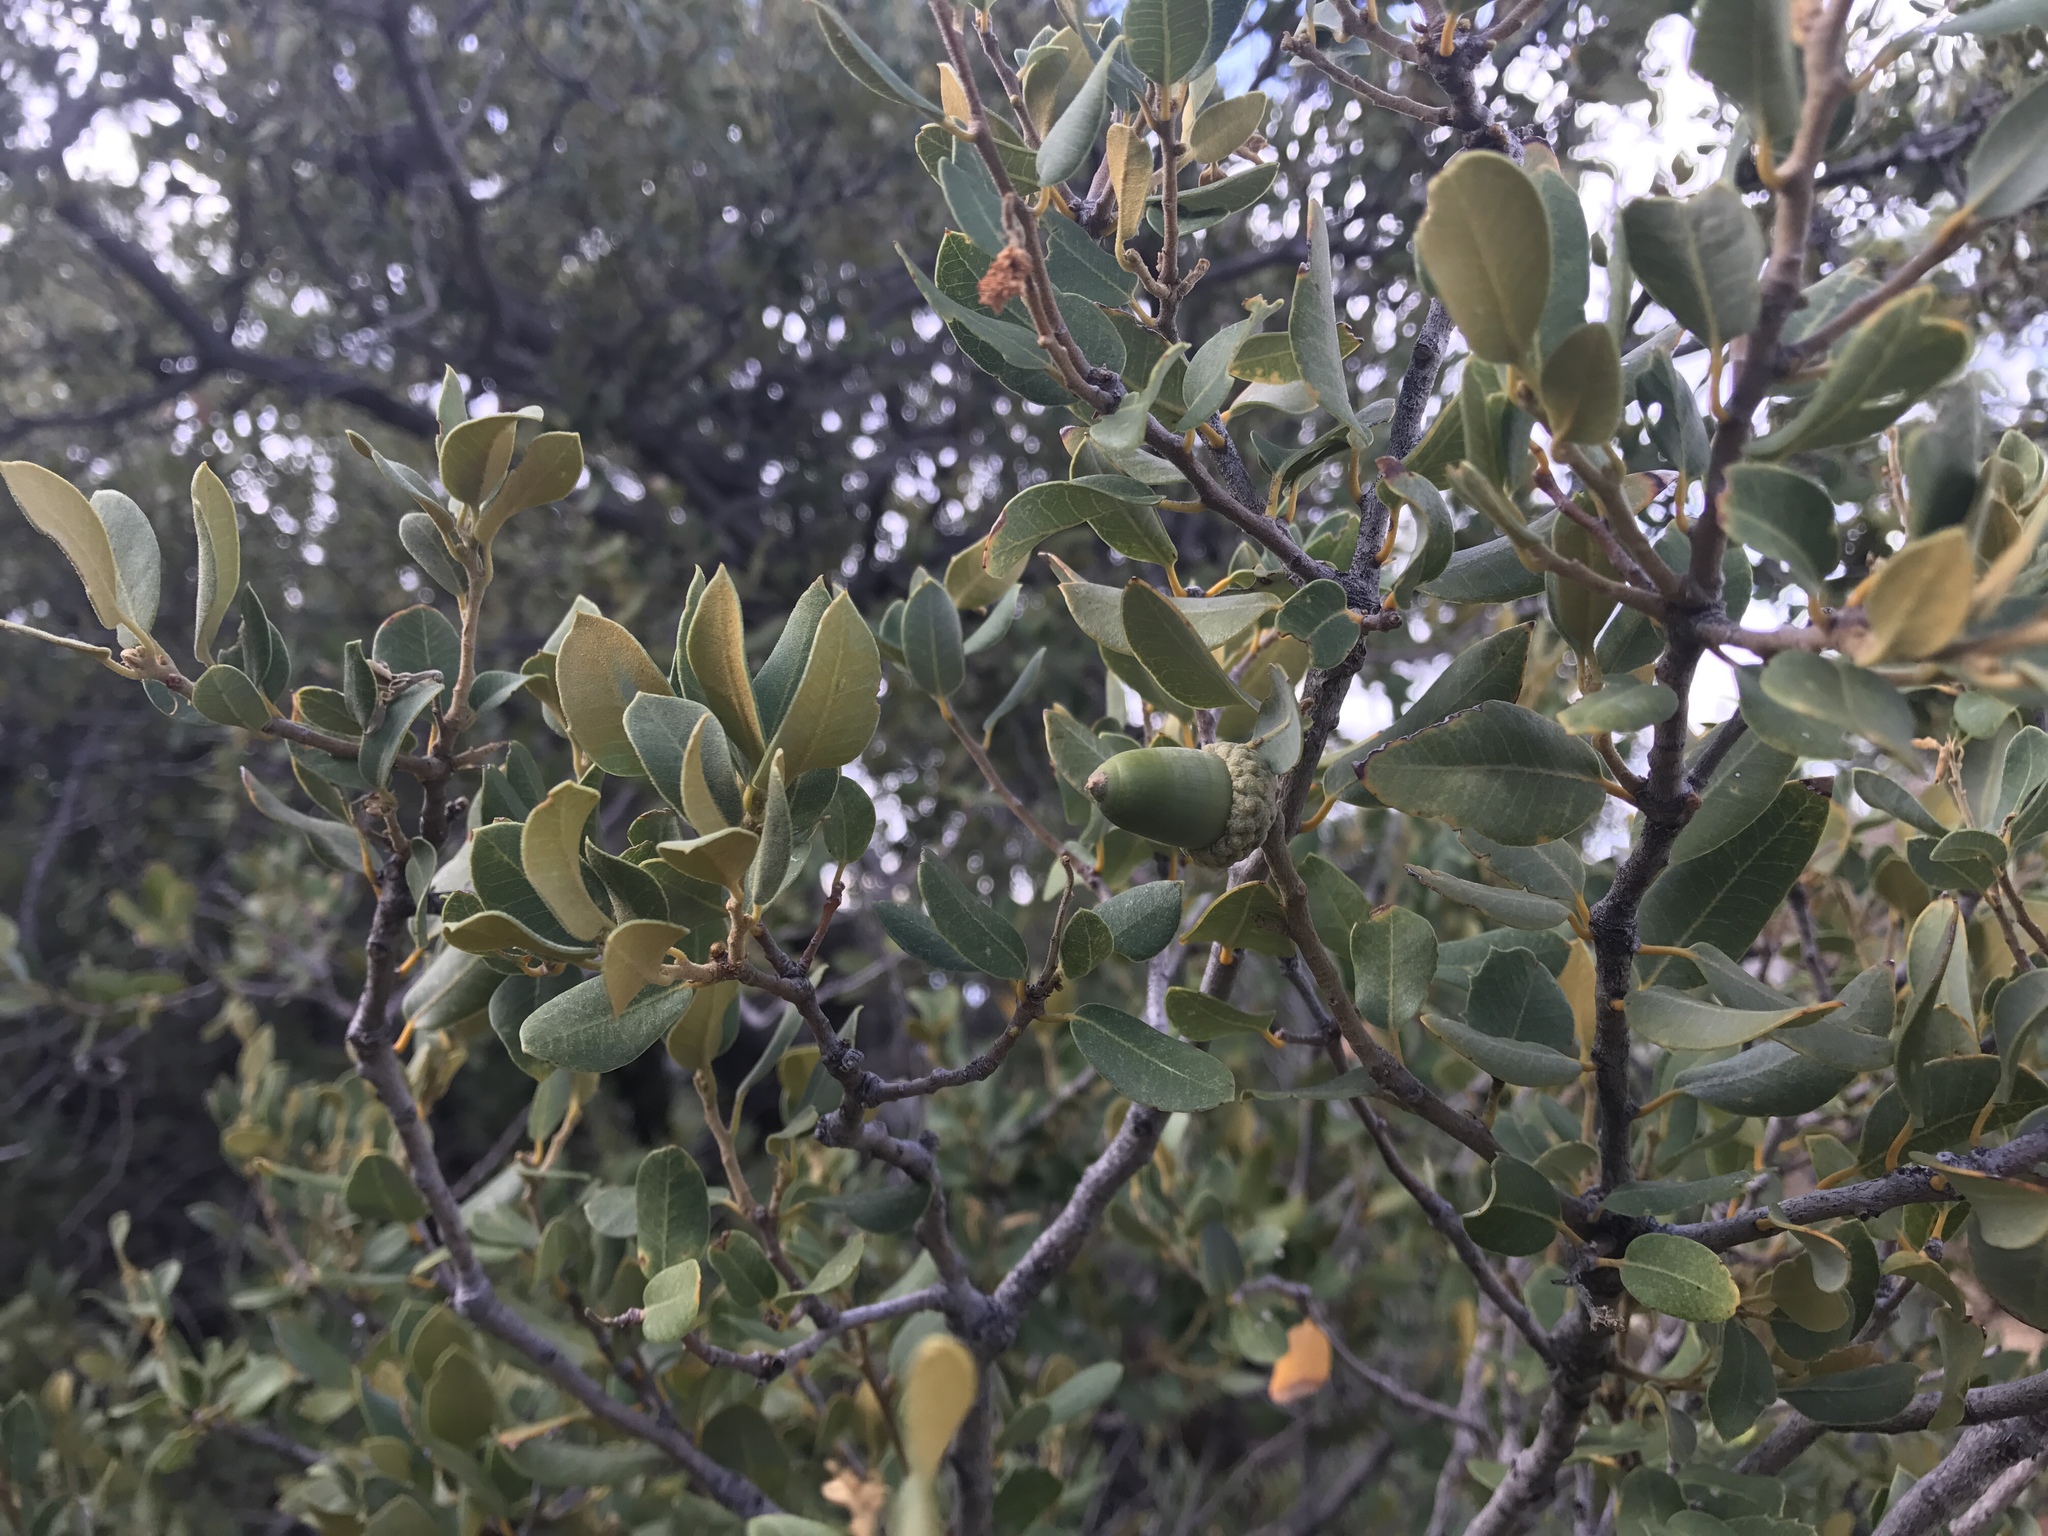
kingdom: Plantae
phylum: Tracheophyta
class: Magnoliopsida
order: Fagales
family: Fagaceae
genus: Quercus
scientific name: Quercus chrysolepis
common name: Canyon live oak
